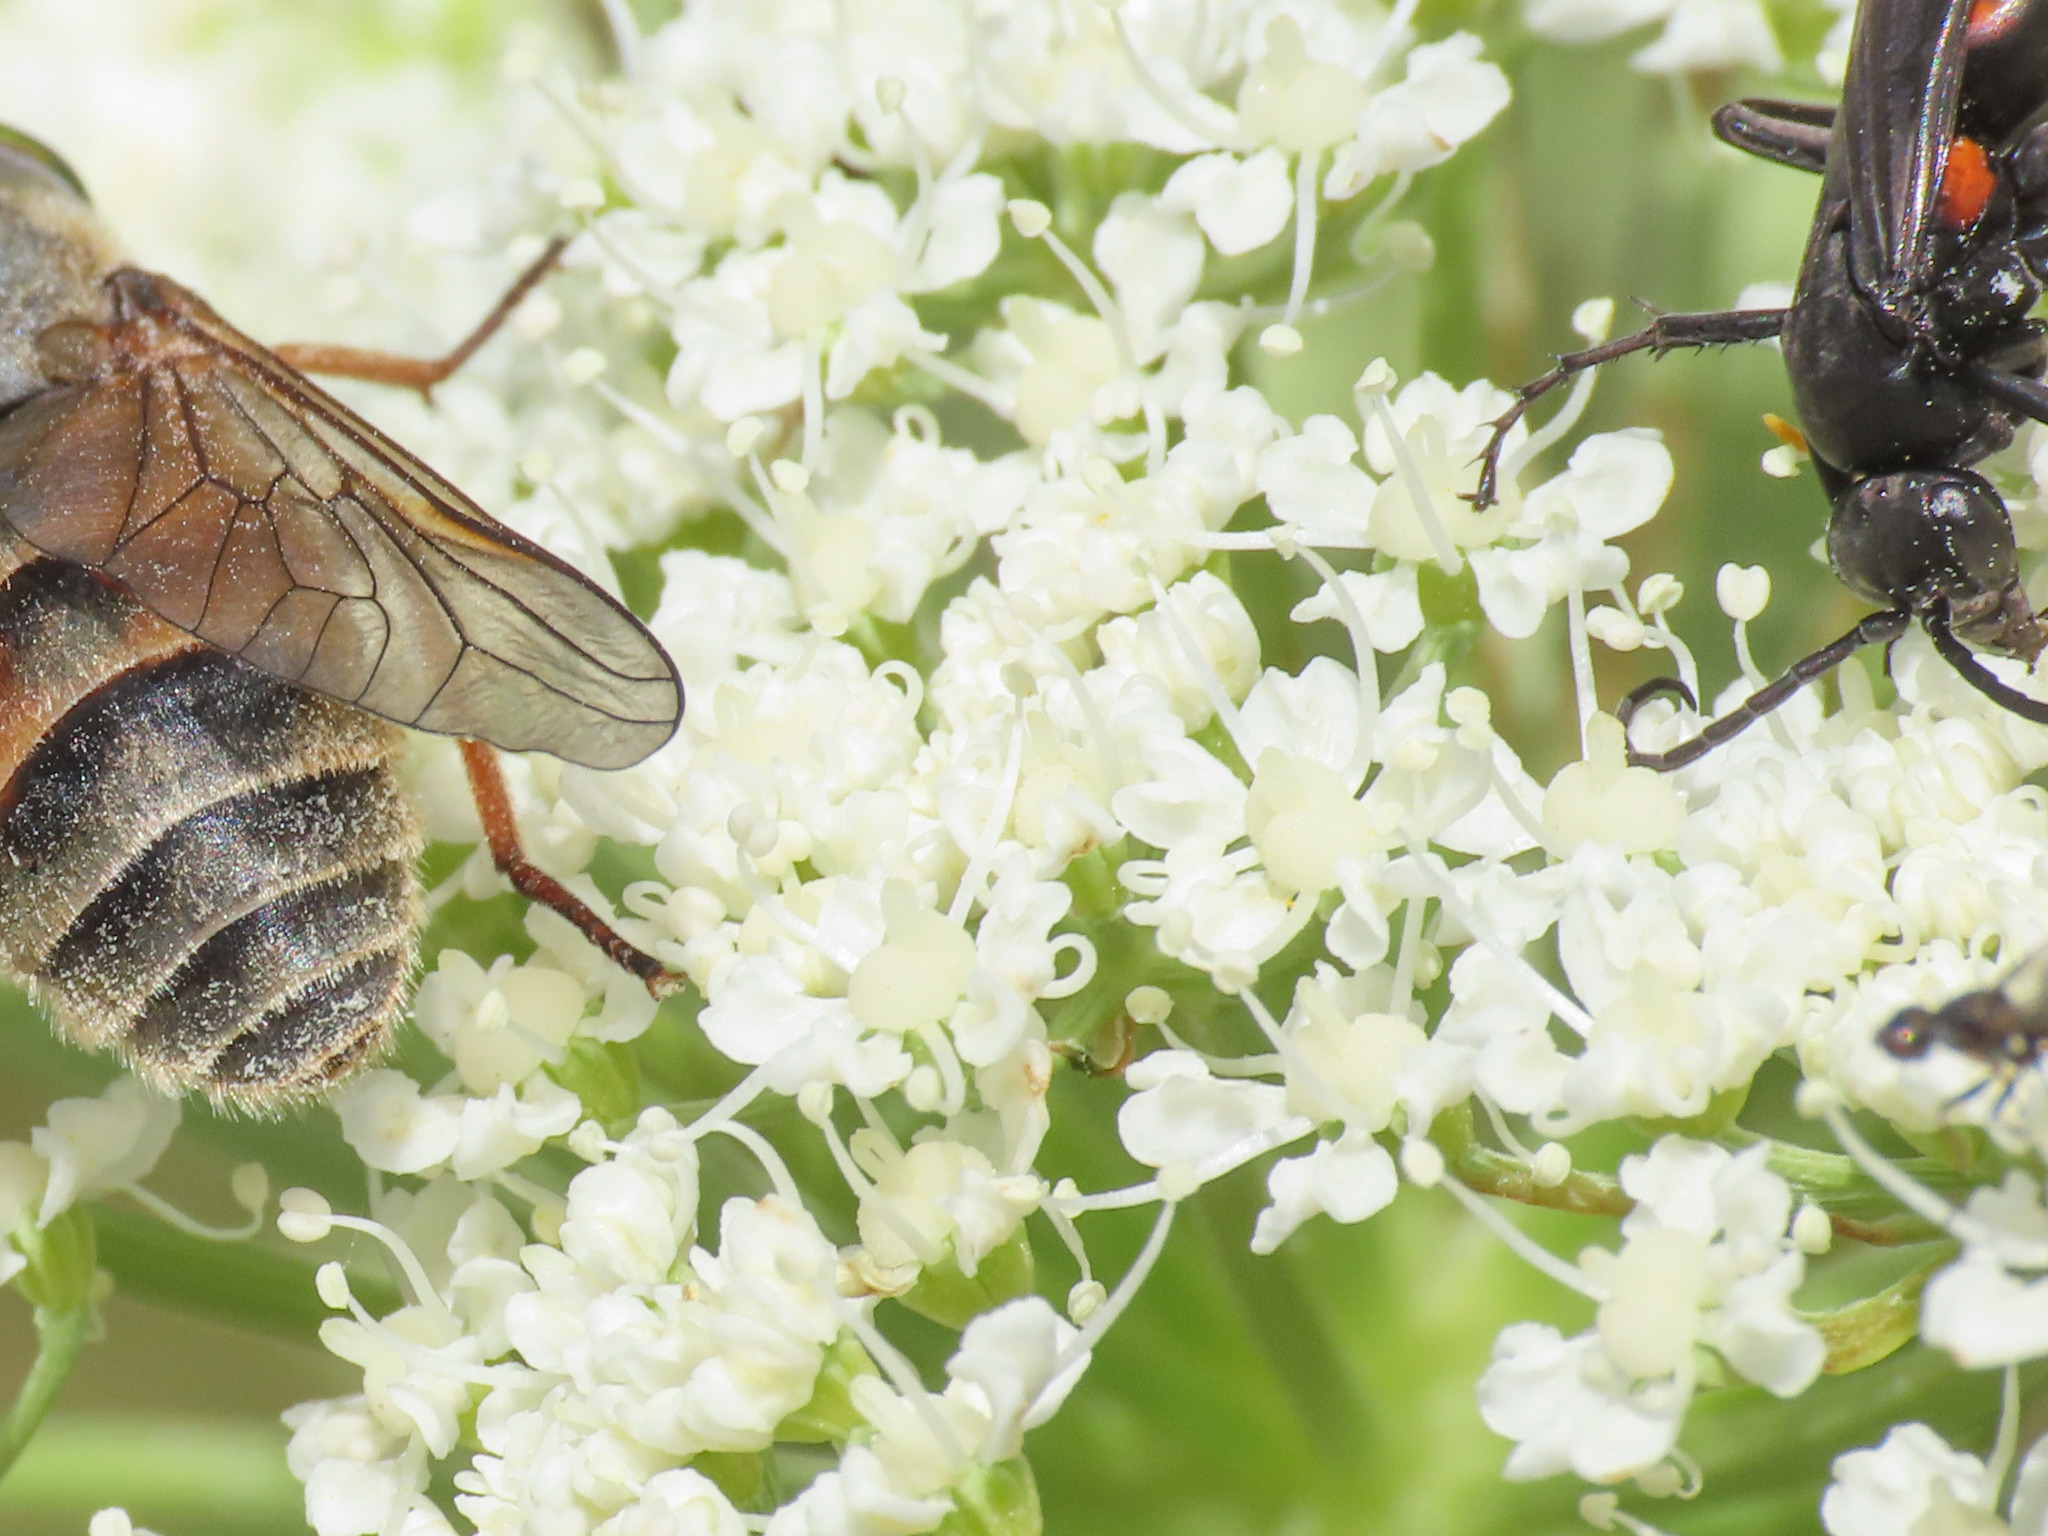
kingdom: Plantae
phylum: Tracheophyta
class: Magnoliopsida
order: Apiales
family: Apiaceae
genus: Coristospermum
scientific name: Coristospermum cuneifolium
